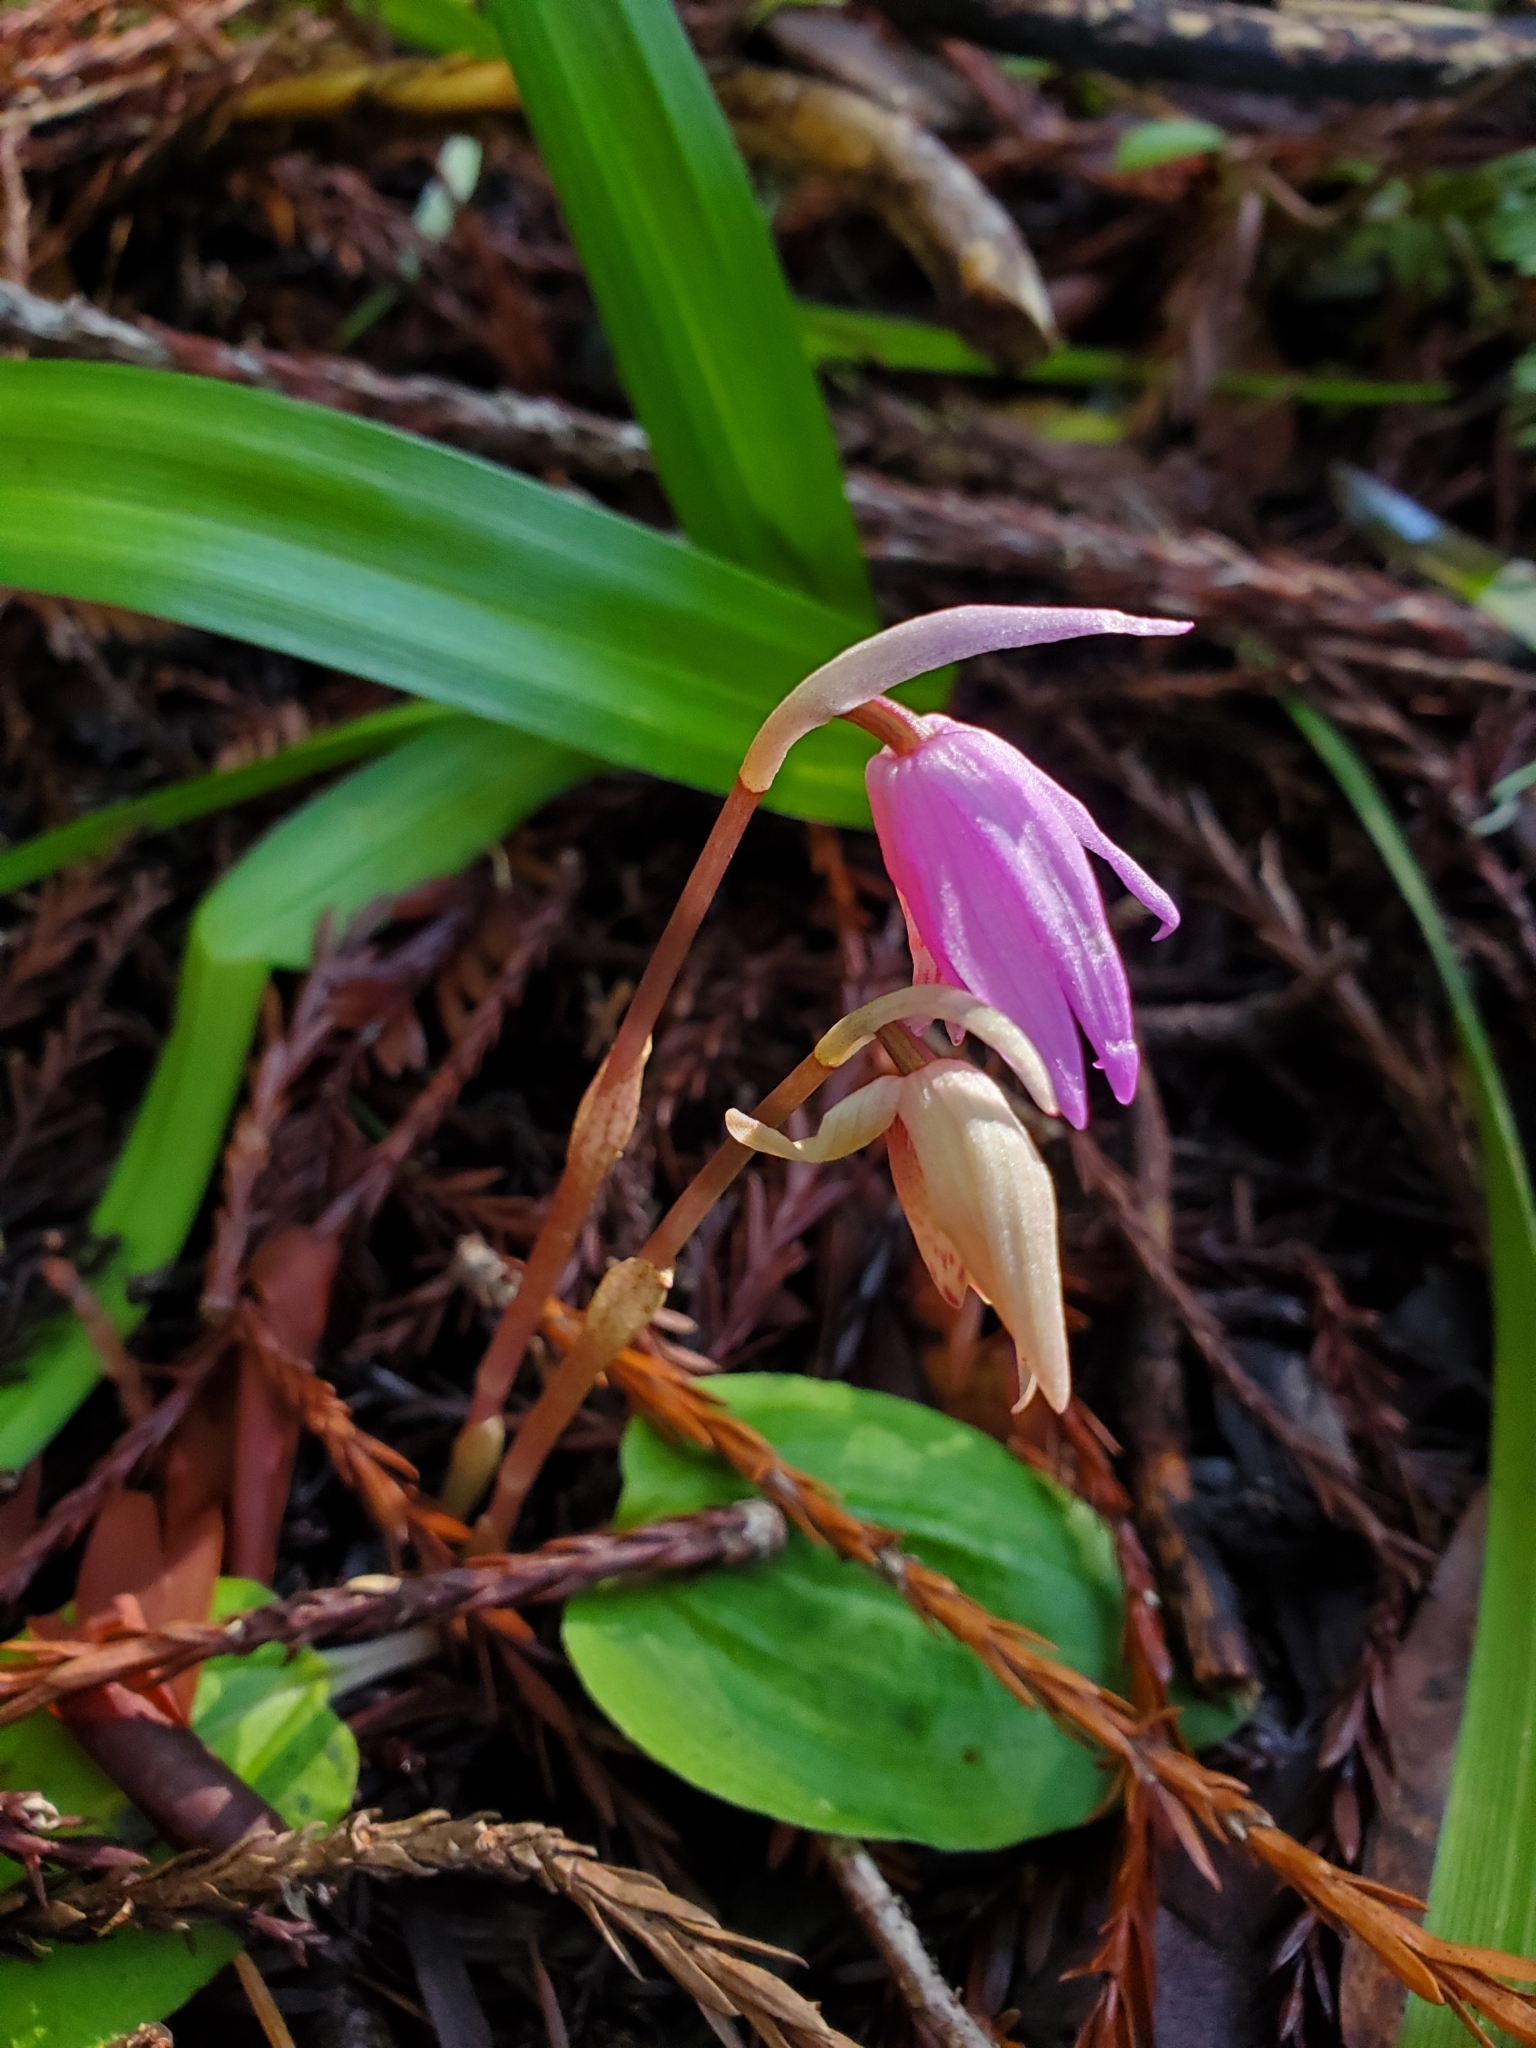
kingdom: Plantae
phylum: Tracheophyta
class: Liliopsida
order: Asparagales
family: Orchidaceae
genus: Calypso
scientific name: Calypso bulbosa
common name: Calypso
